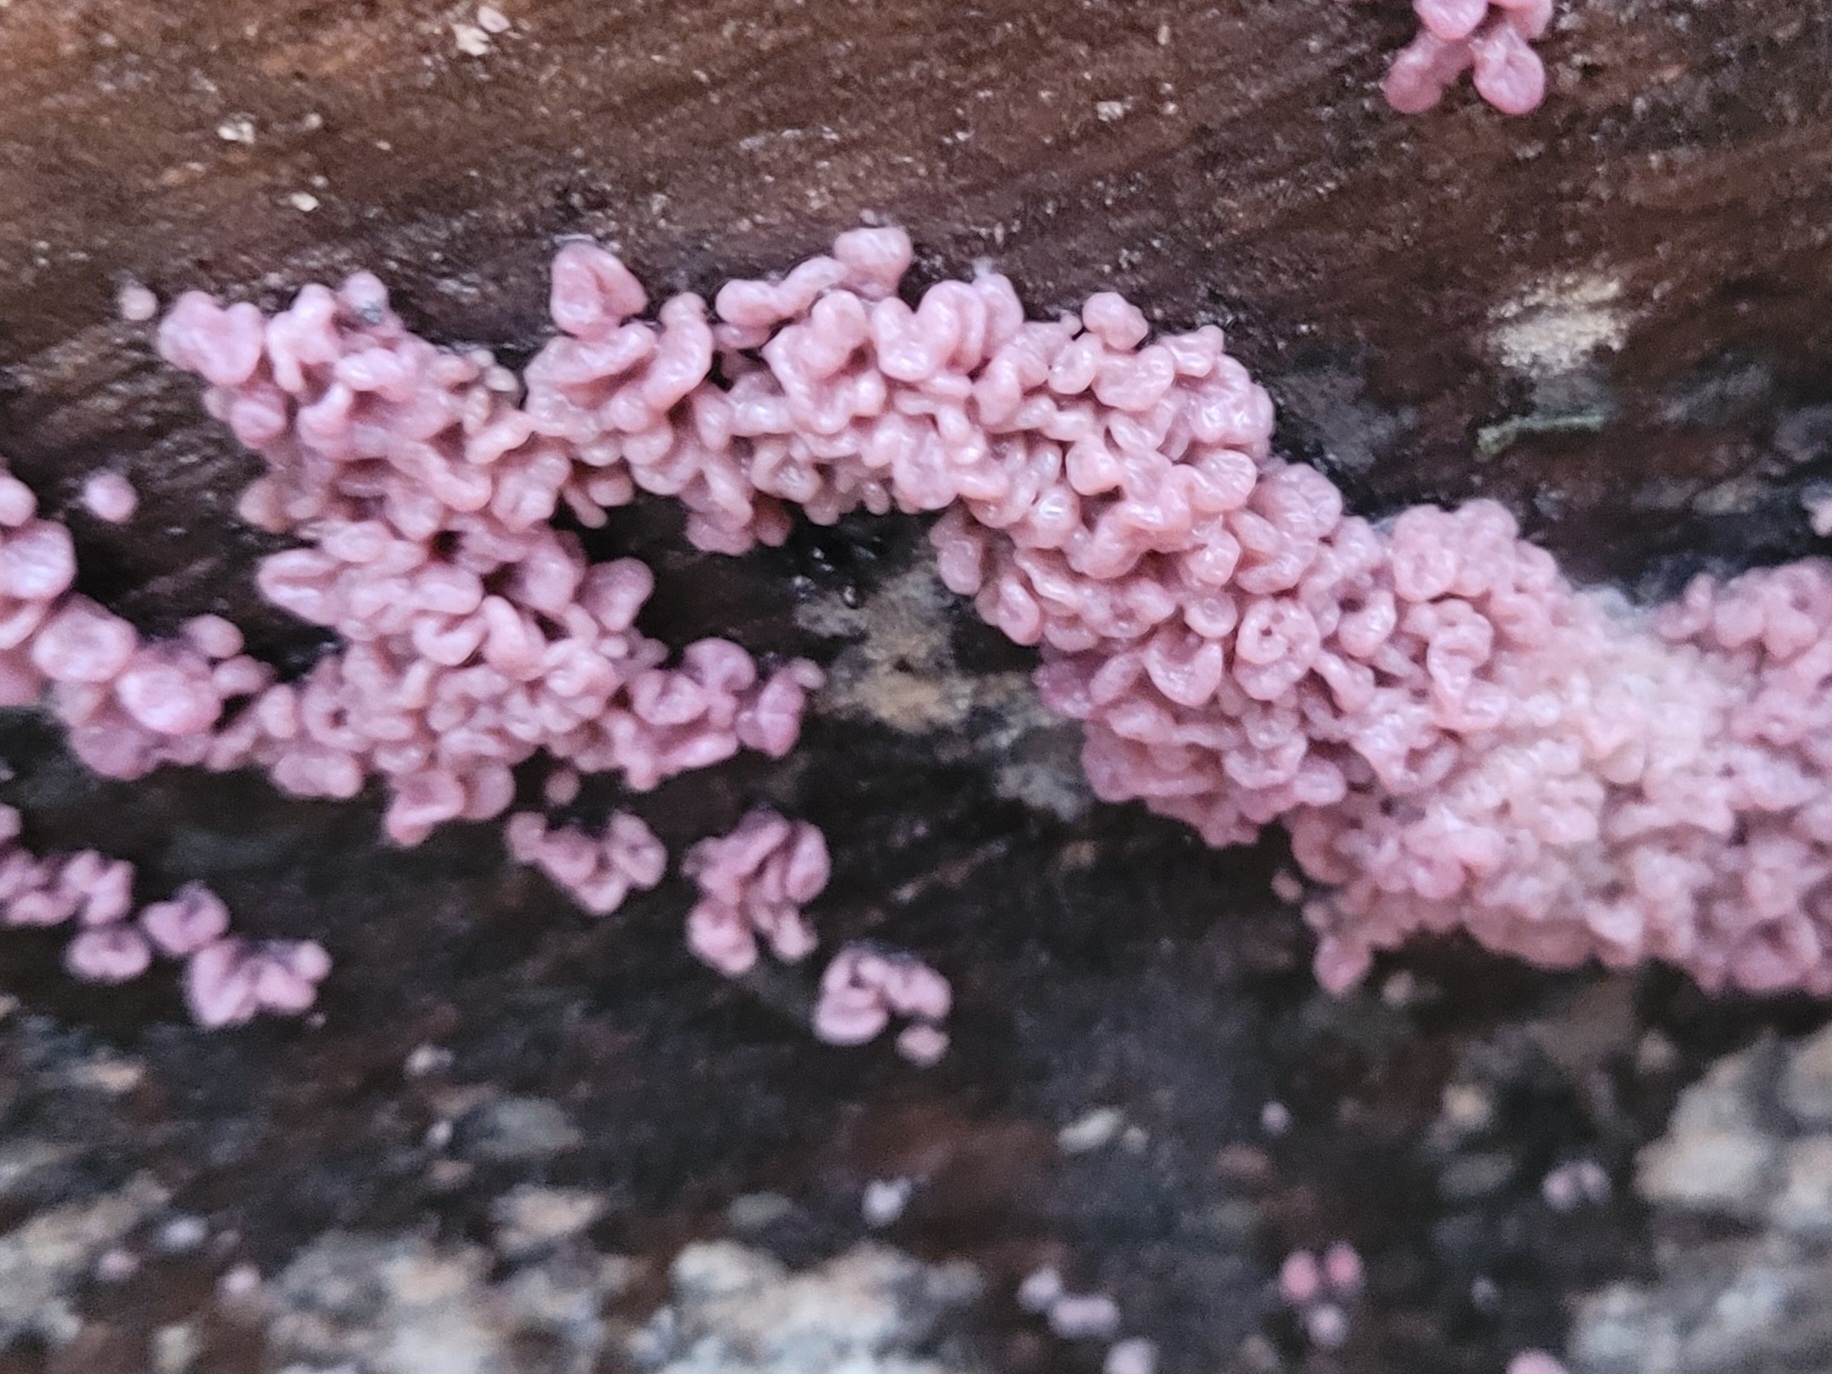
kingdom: Fungi
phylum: Ascomycota
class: Leotiomycetes
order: Helotiales
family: Gelatinodiscaceae
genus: Ascocoryne
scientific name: Ascocoryne sarcoides
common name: Purple jellydisc
